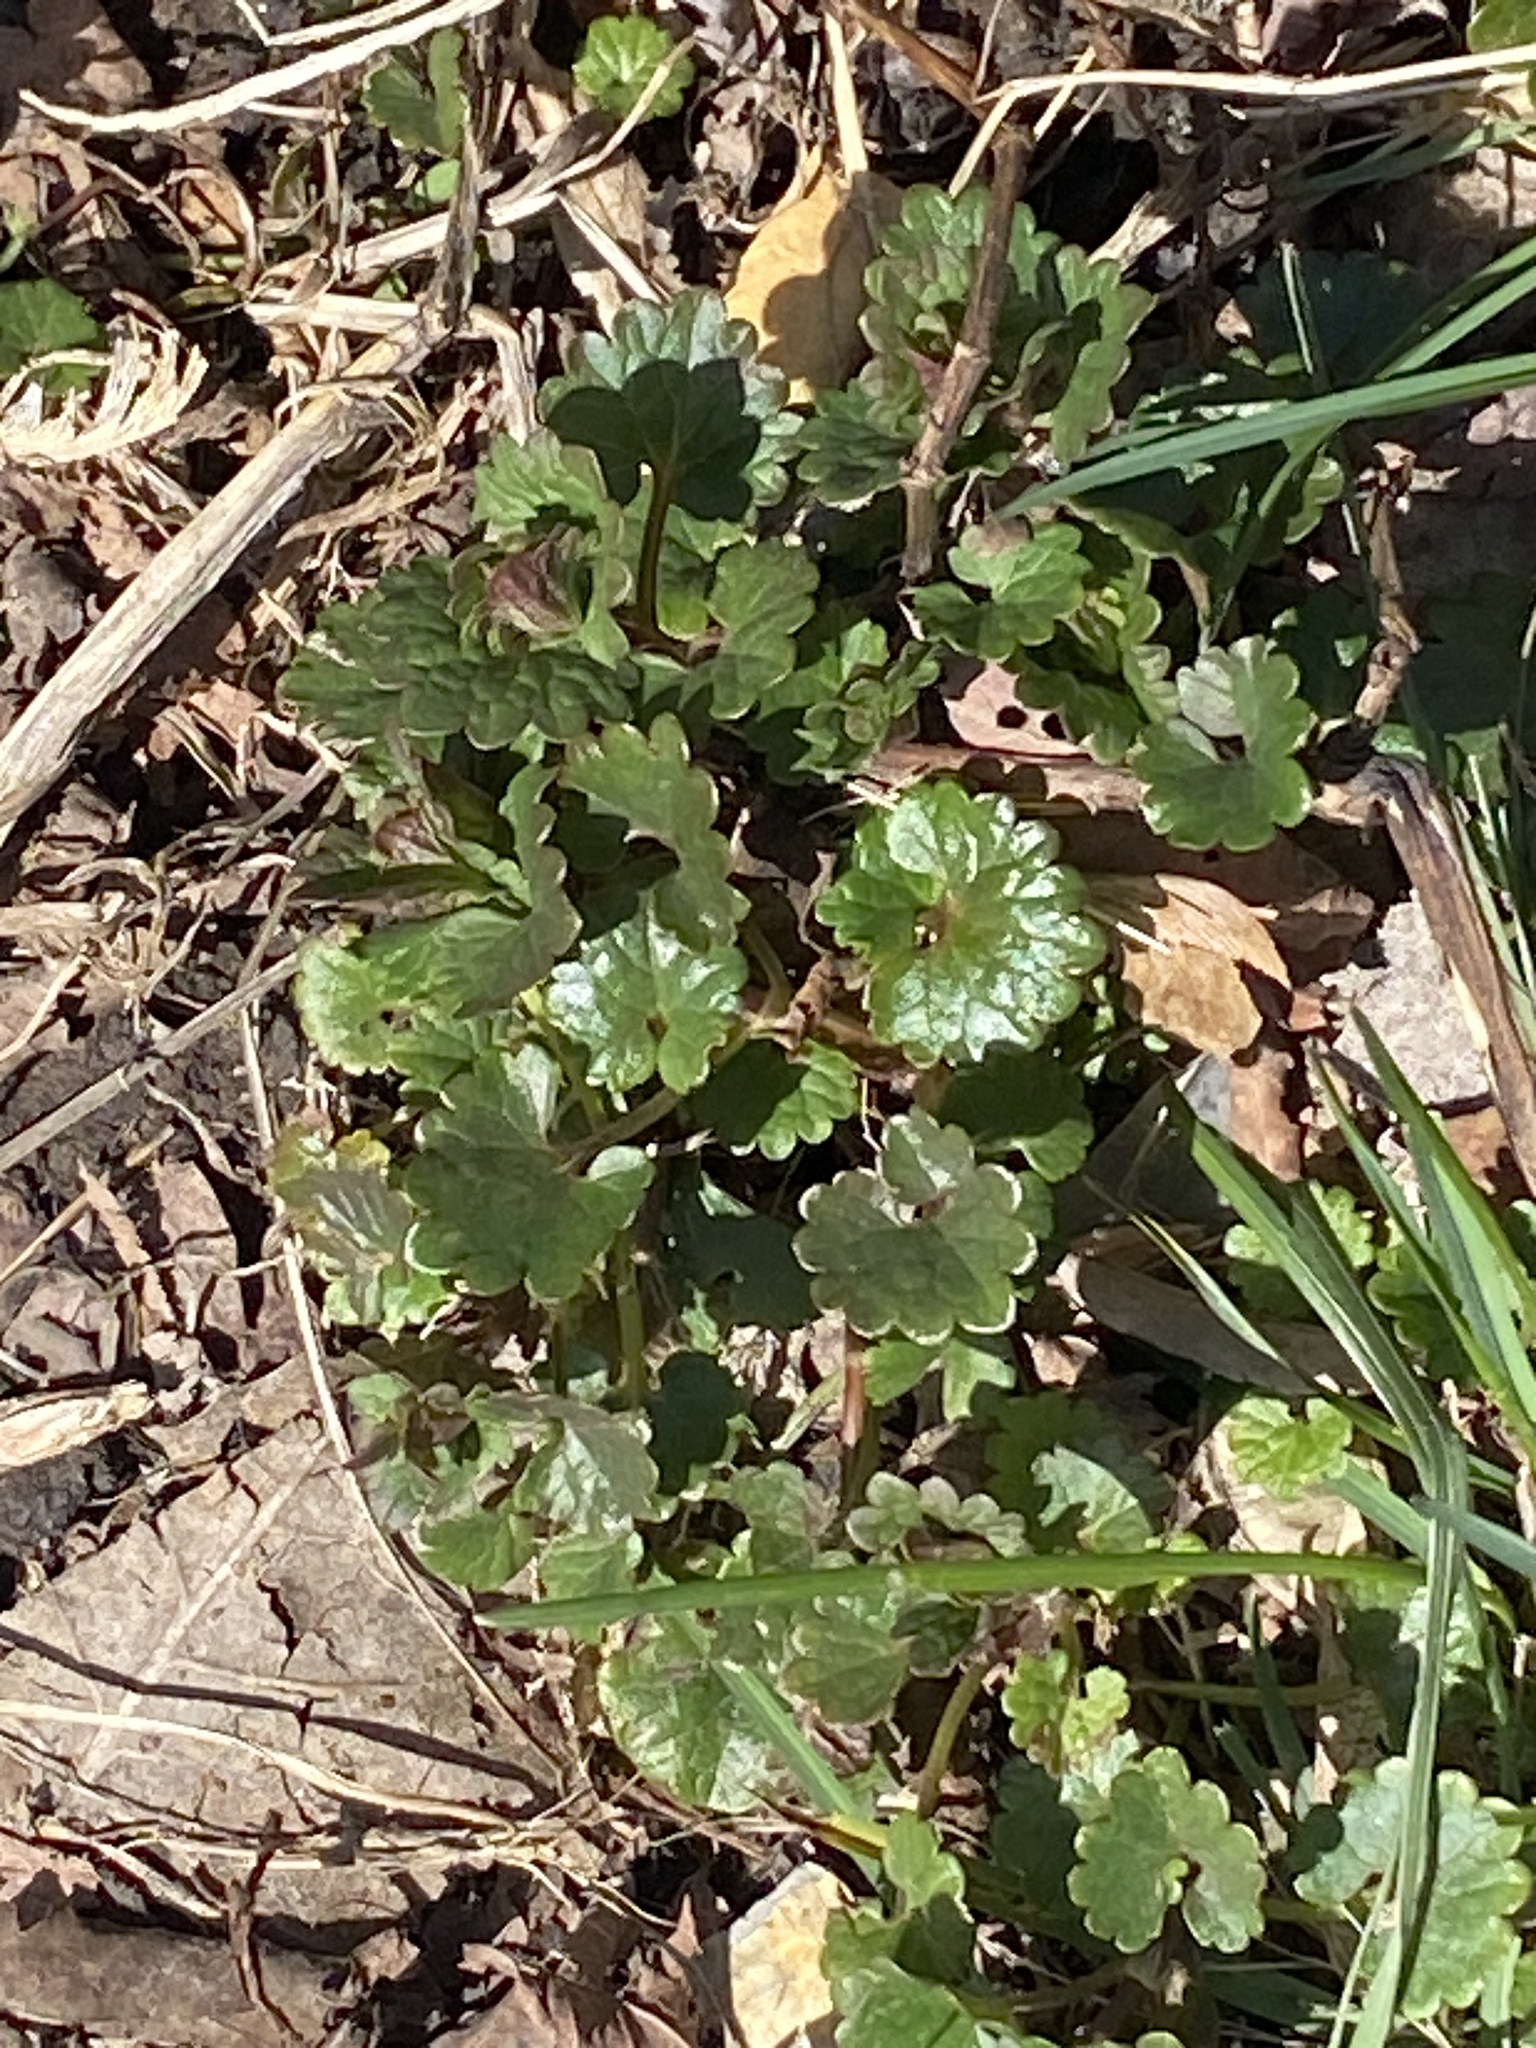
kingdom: Plantae
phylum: Tracheophyta
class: Magnoliopsida
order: Lamiales
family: Lamiaceae
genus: Glechoma
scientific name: Glechoma hederacea
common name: Ground ivy
